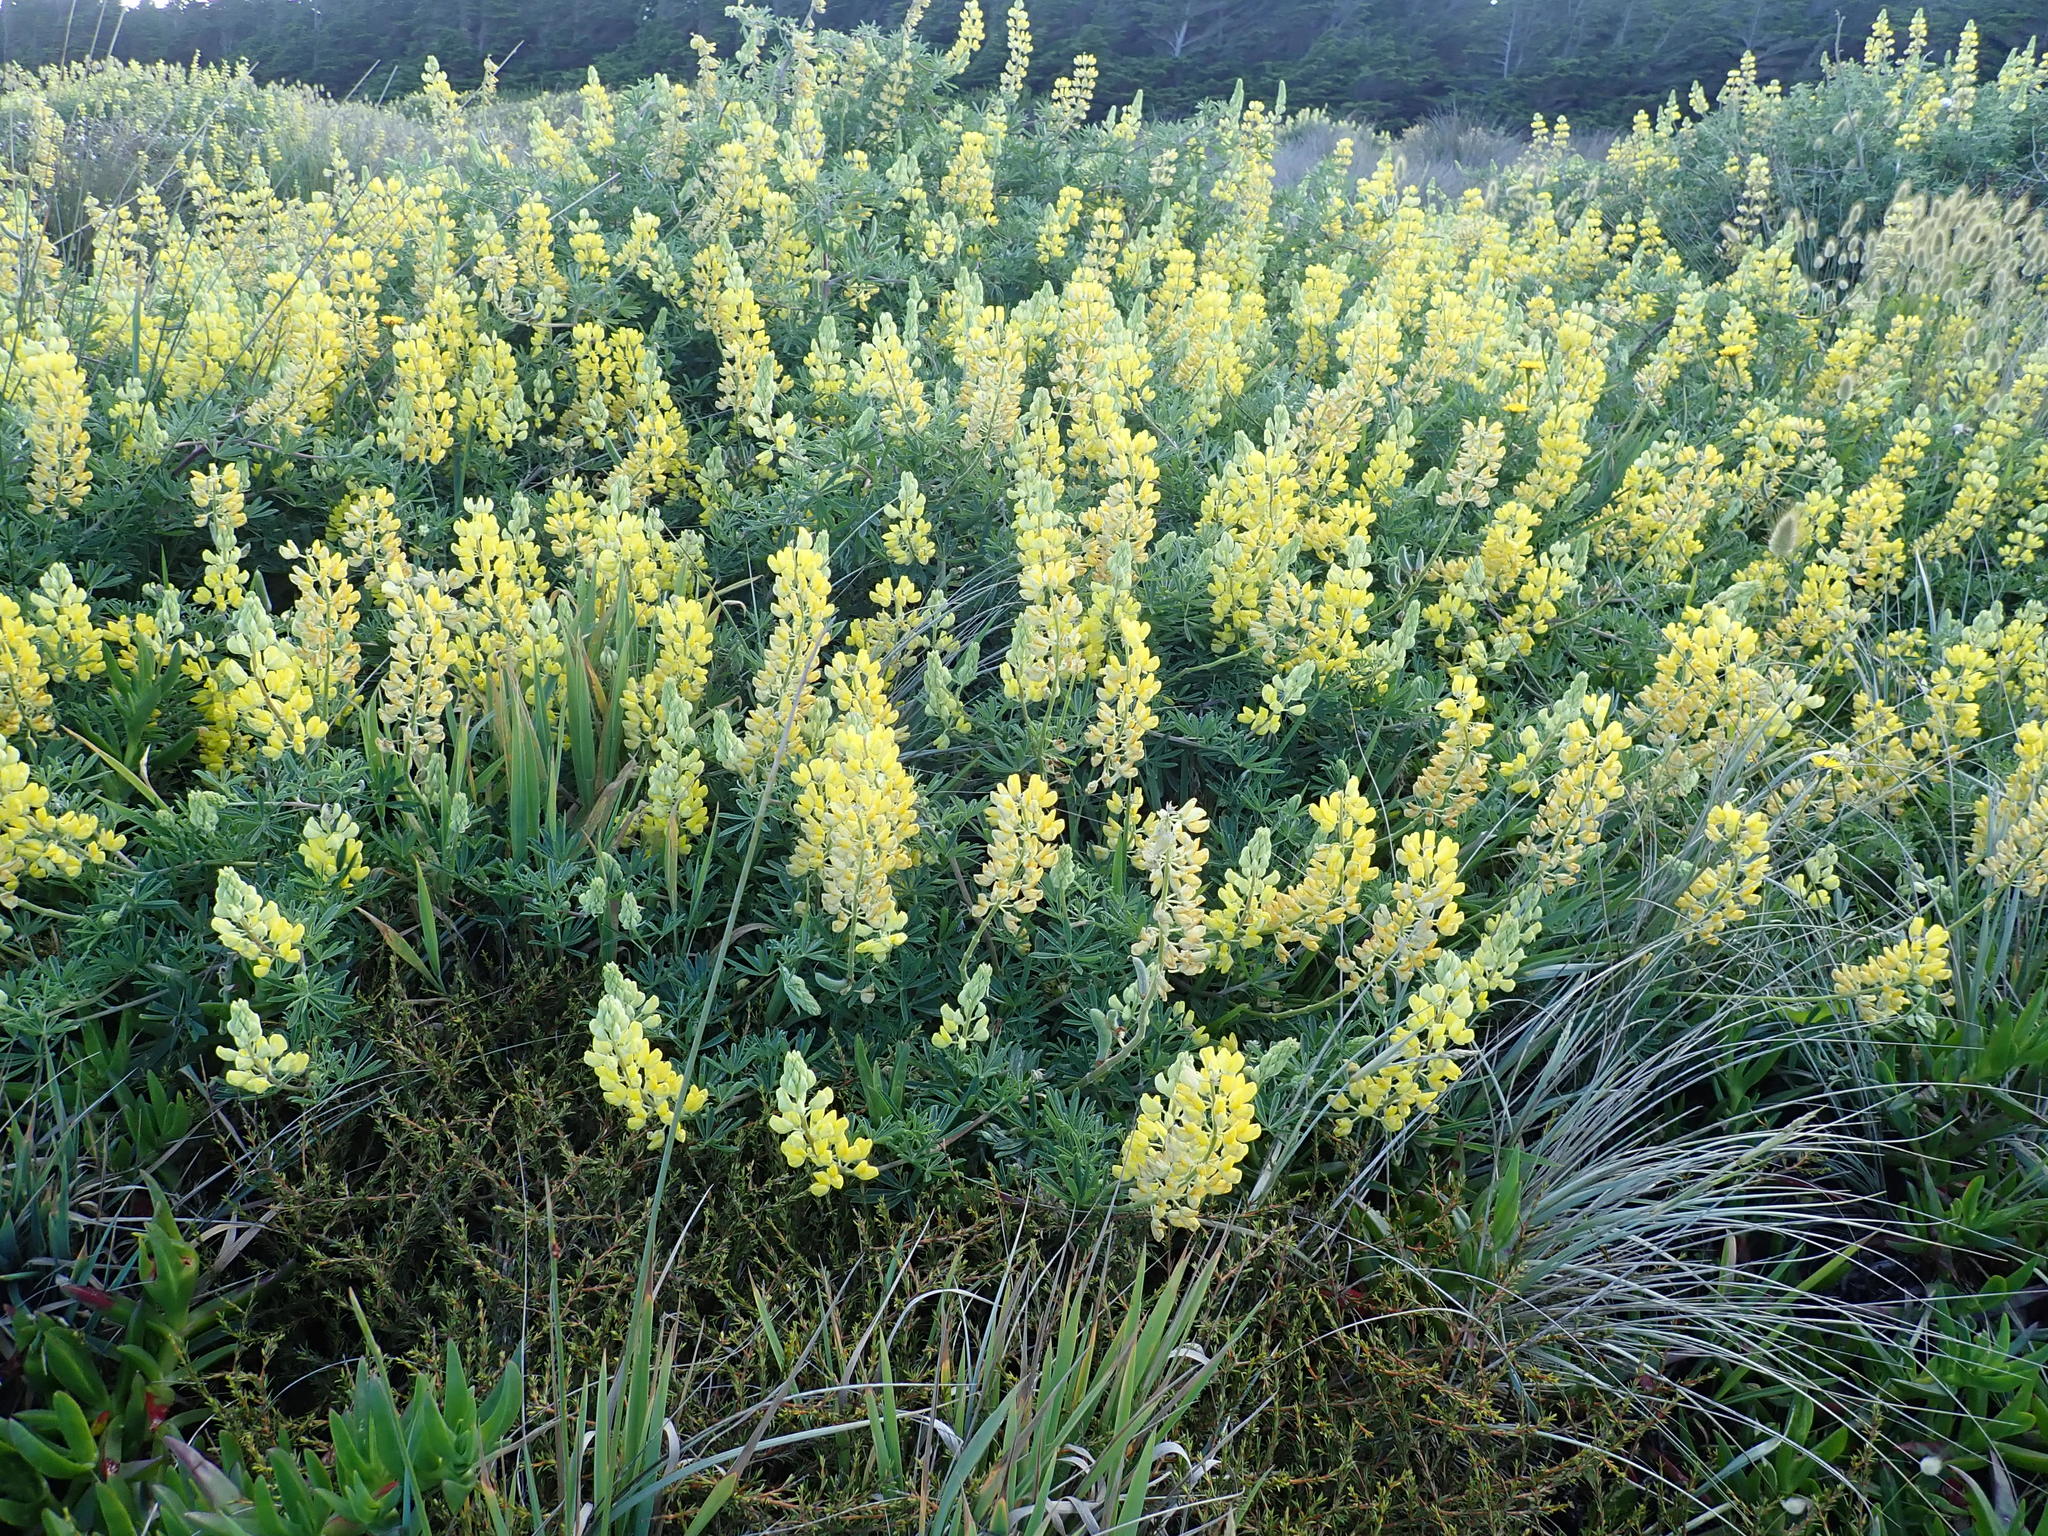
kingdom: Plantae
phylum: Tracheophyta
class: Magnoliopsida
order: Fabales
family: Fabaceae
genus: Lupinus
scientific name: Lupinus arboreus
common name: Yellow bush lupine
